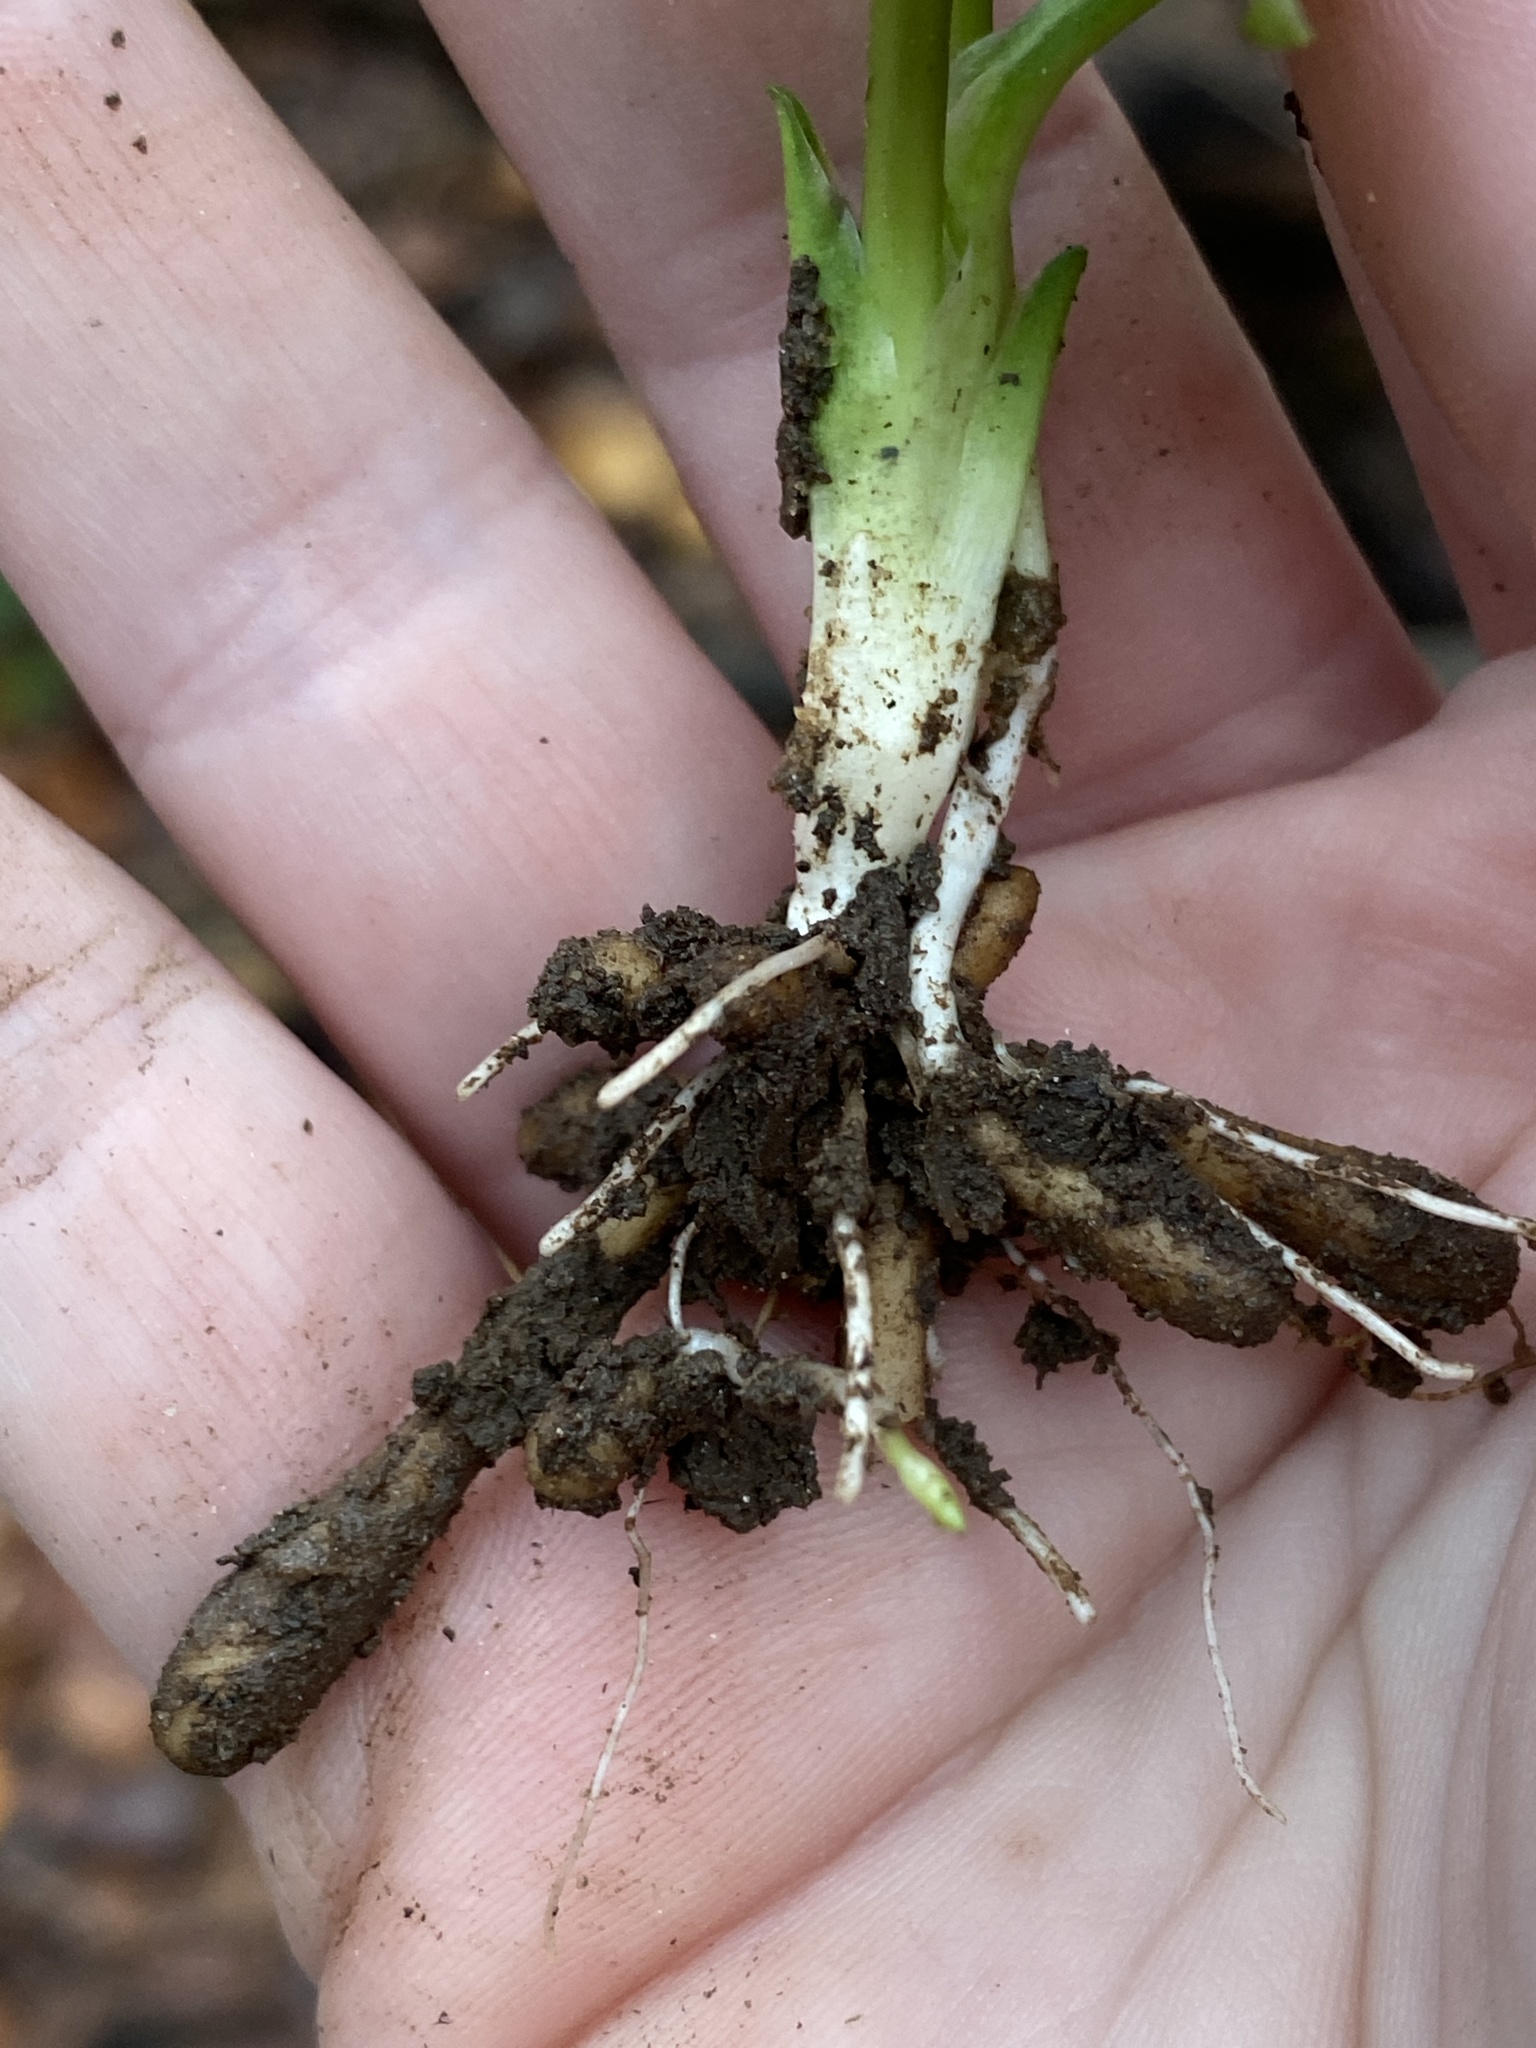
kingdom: Plantae
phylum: Tracheophyta
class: Magnoliopsida
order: Ranunculales
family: Ranunculaceae
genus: Ficaria
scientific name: Ficaria verna
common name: Lesser celandine
